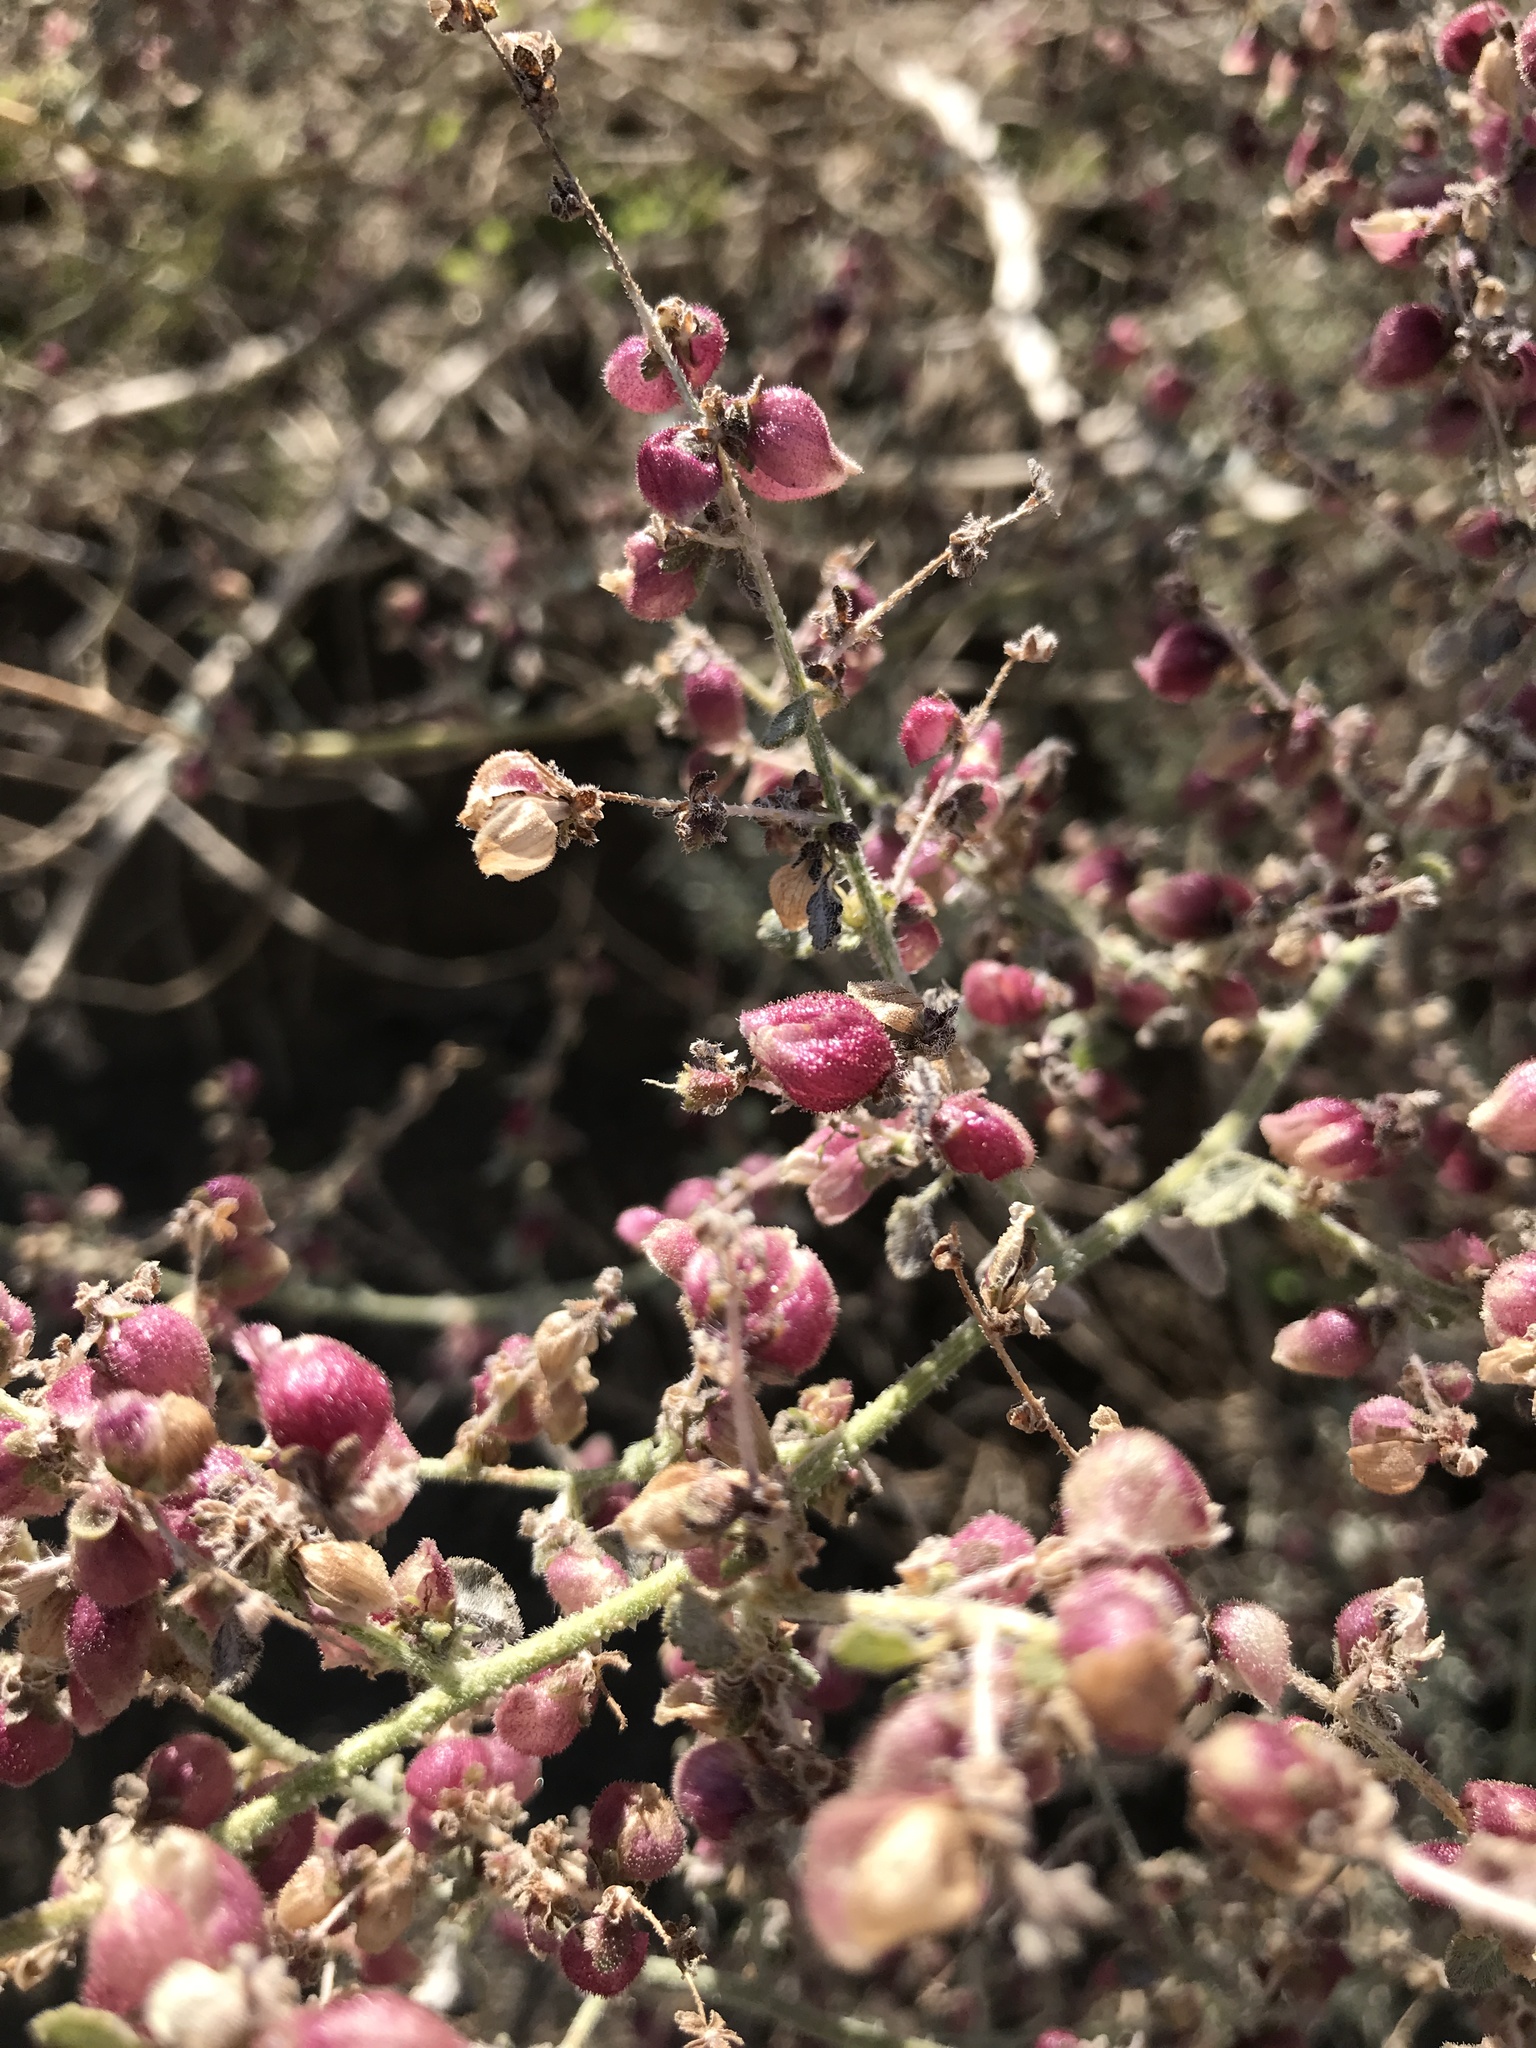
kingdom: Plantae
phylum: Tracheophyta
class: Magnoliopsida
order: Asterales
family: Asteraceae
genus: Dicoria
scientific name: Dicoria canescens
